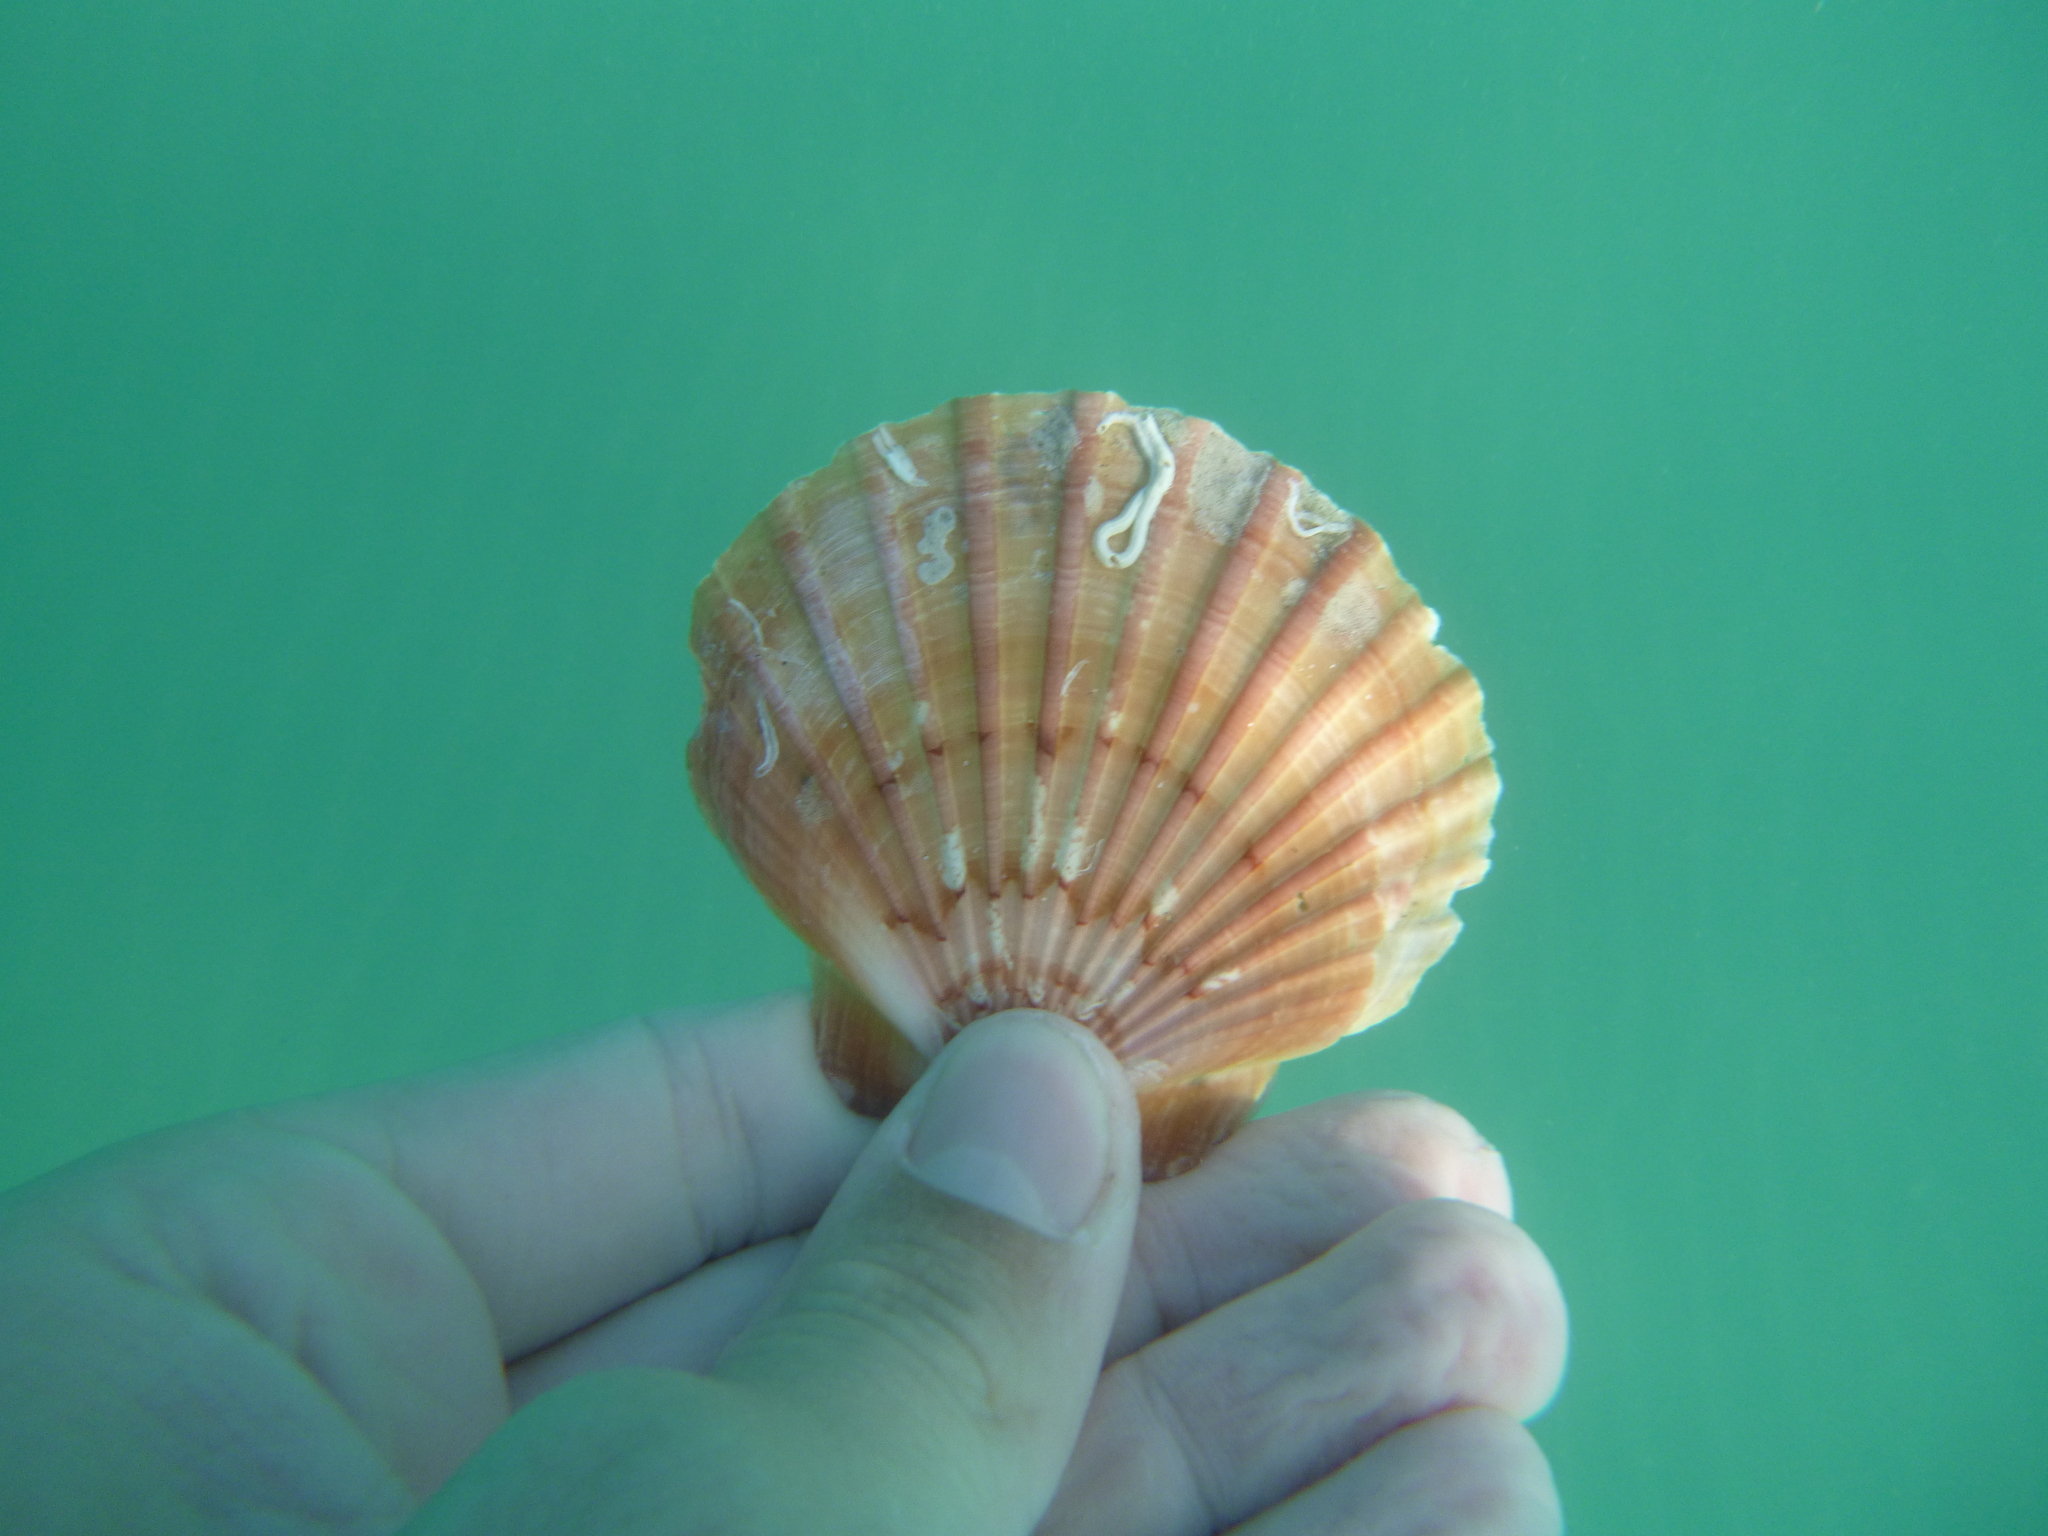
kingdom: Animalia
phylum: Mollusca
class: Bivalvia
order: Pectinida
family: Pectinidae
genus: Pecten
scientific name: Pecten novaezelandiae
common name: New zealand scallop
